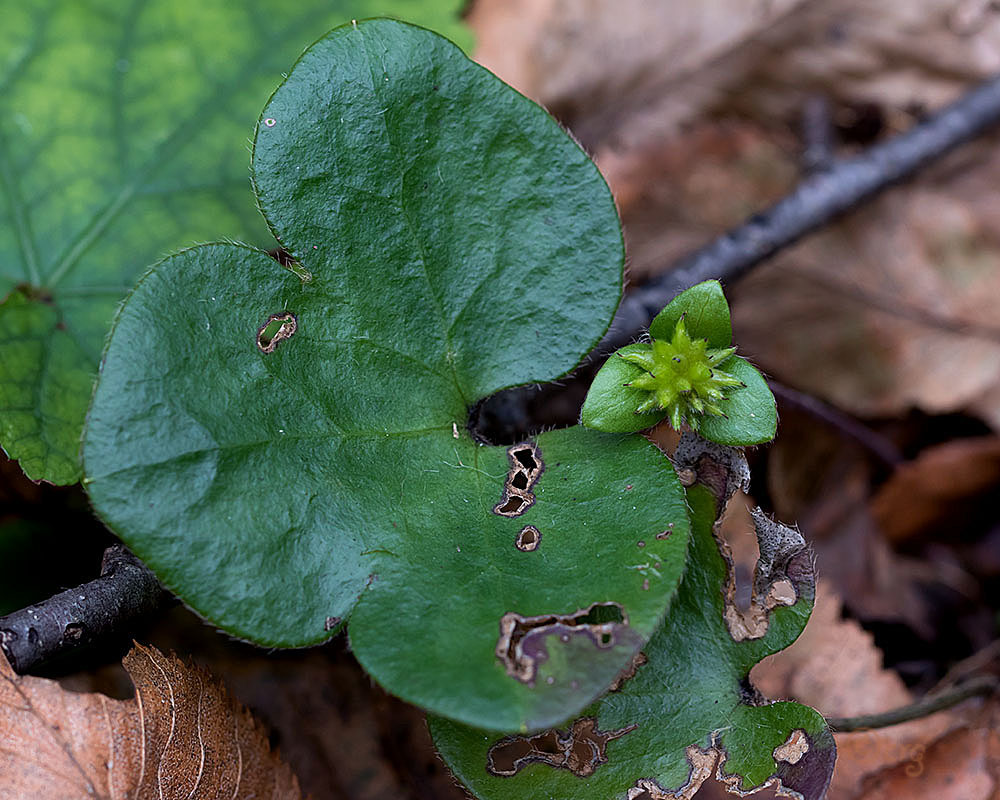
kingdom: Plantae
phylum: Tracheophyta
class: Magnoliopsida
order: Ranunculales
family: Ranunculaceae
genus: Hepatica
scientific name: Hepatica americana
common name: American hepatica
